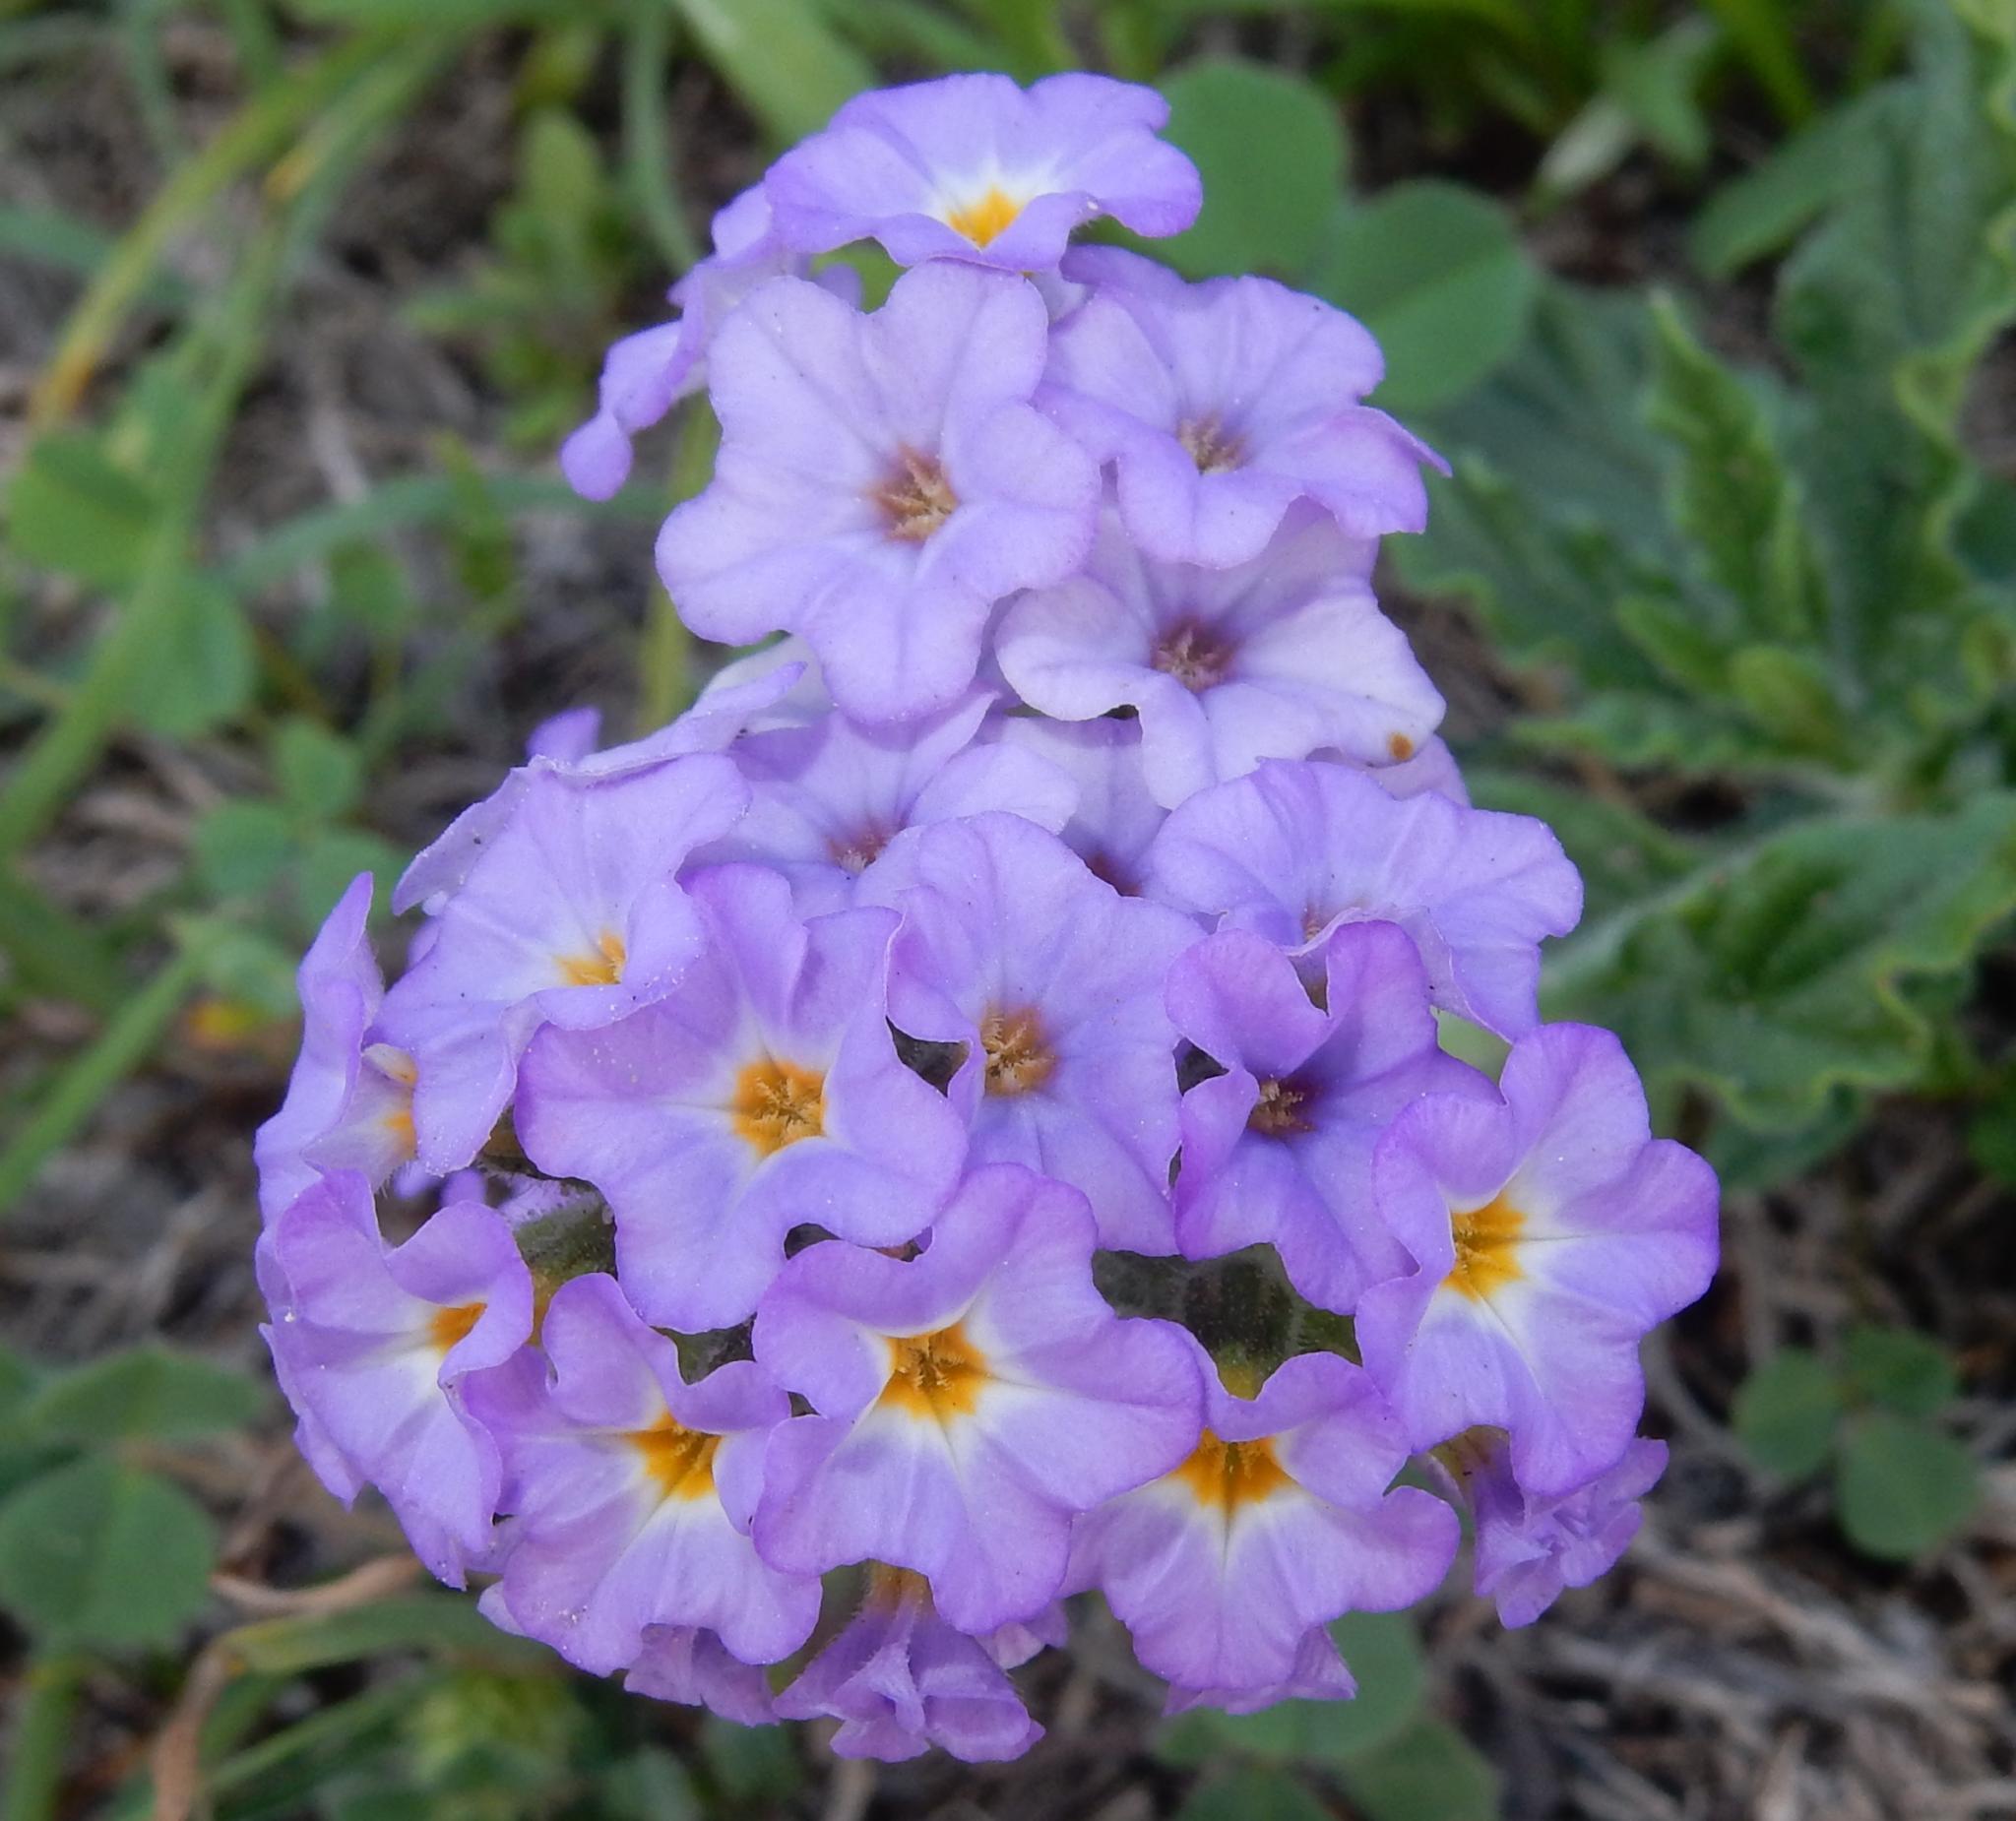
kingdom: Plantae
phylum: Tracheophyta
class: Magnoliopsida
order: Boraginales
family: Heliotropiaceae
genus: Heliotropium
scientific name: Heliotropium amplexicaule
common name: Clasping heliotrope
